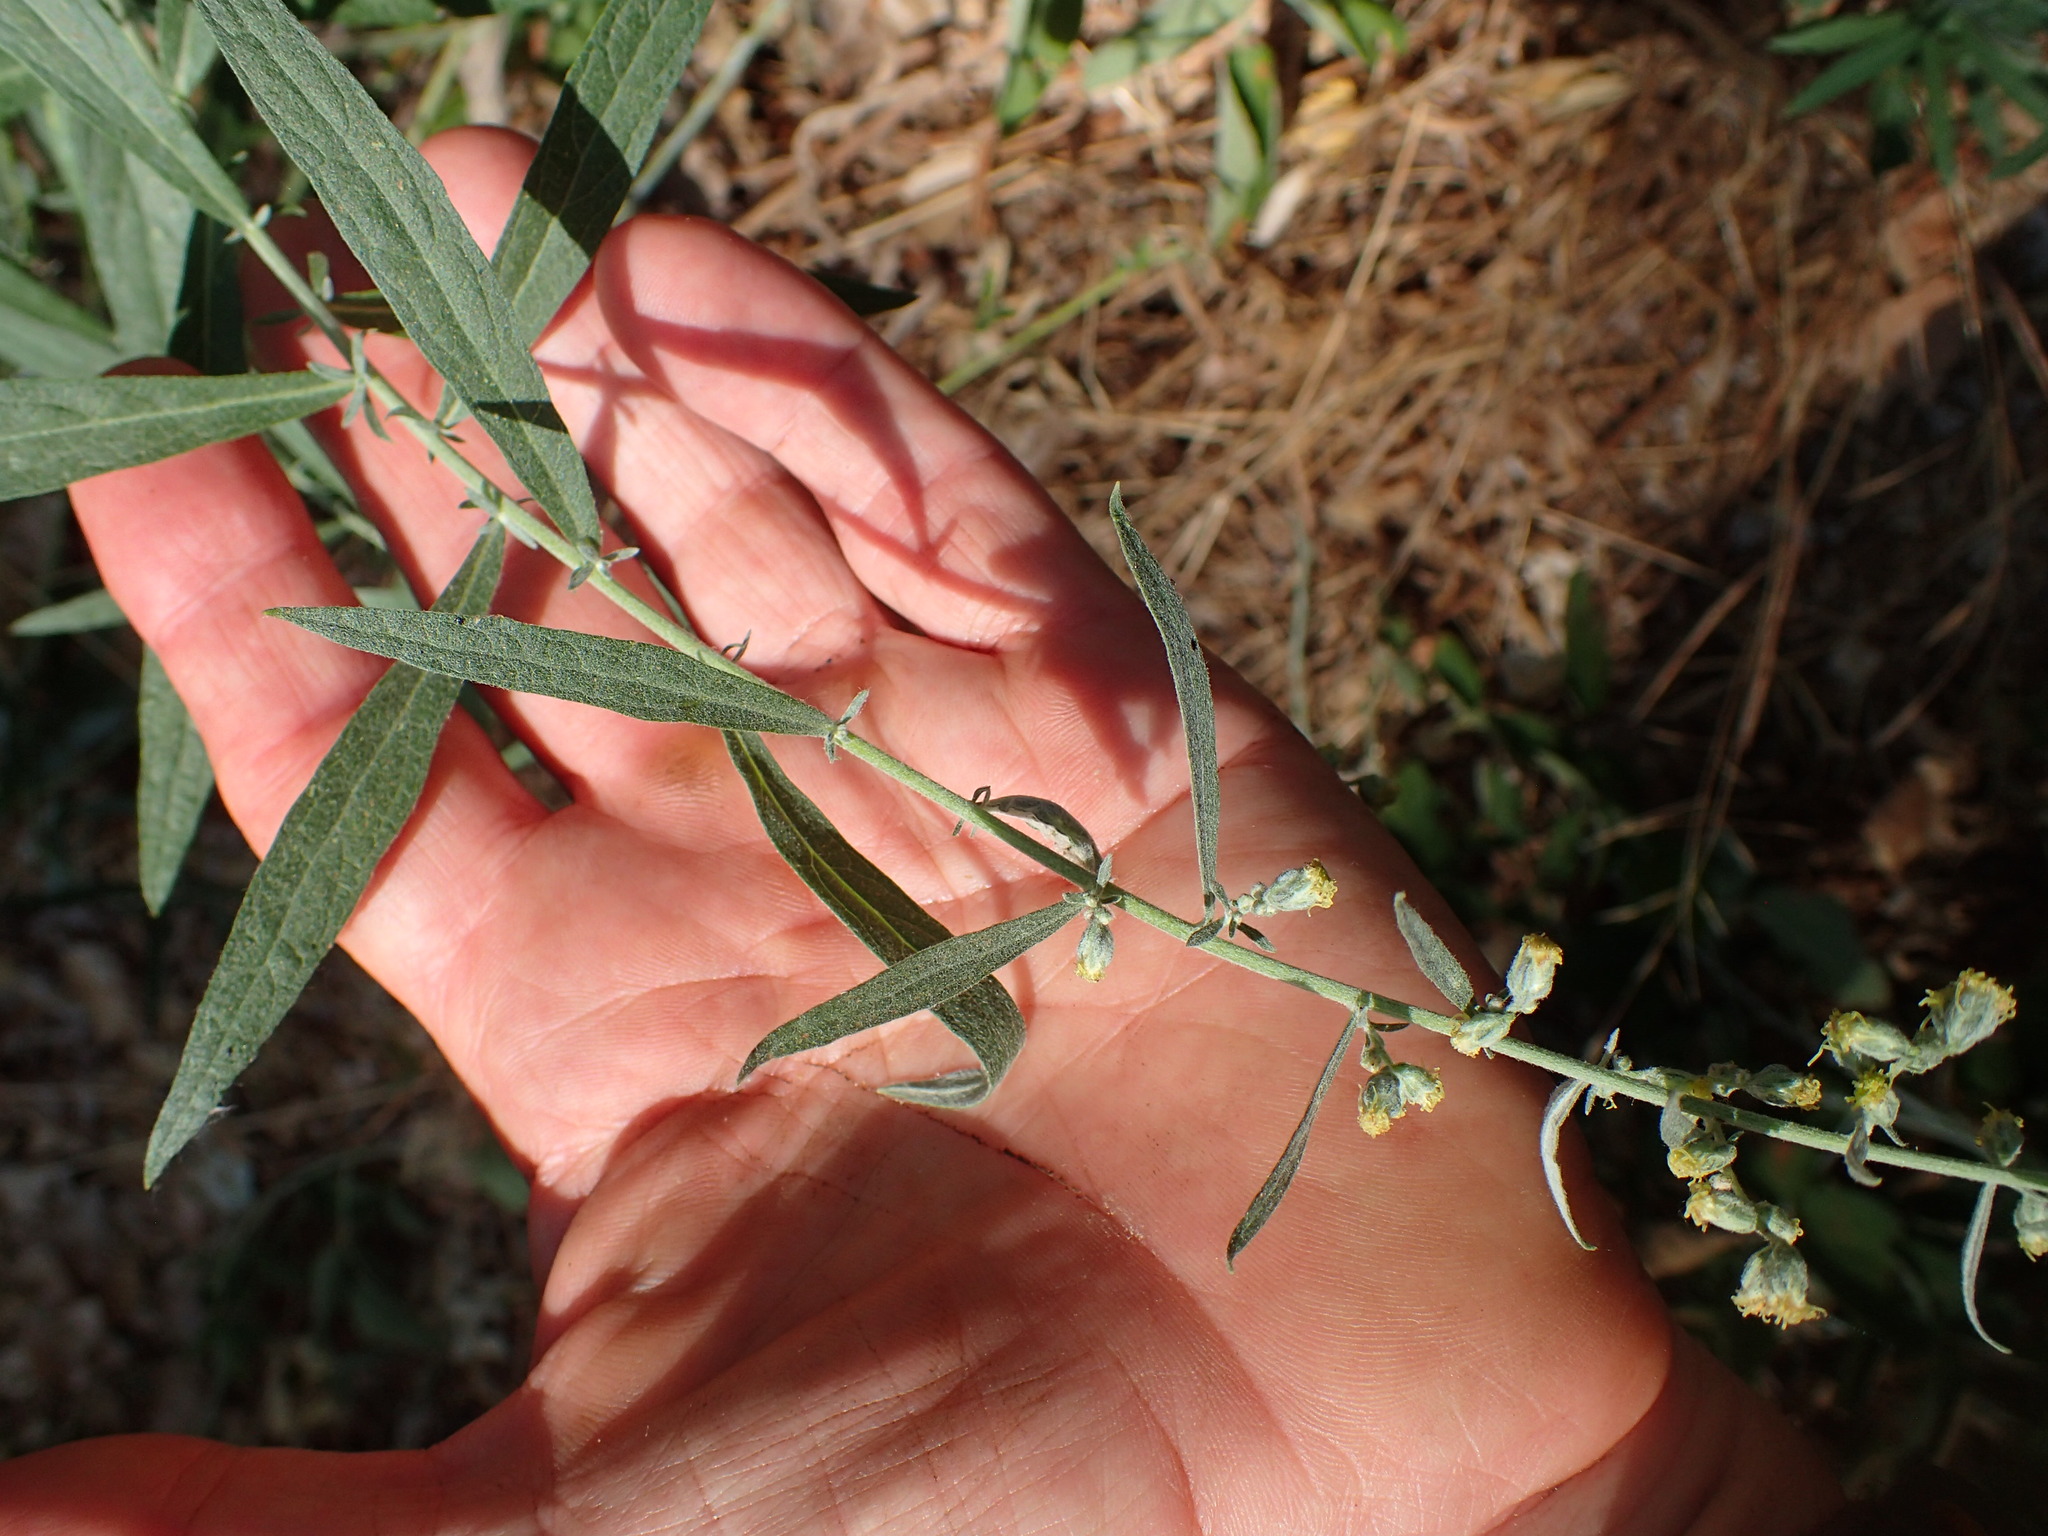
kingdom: Plantae
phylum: Tracheophyta
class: Magnoliopsida
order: Asterales
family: Asteraceae
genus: Artemisia
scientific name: Artemisia douglasiana
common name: Northwest mugwort
